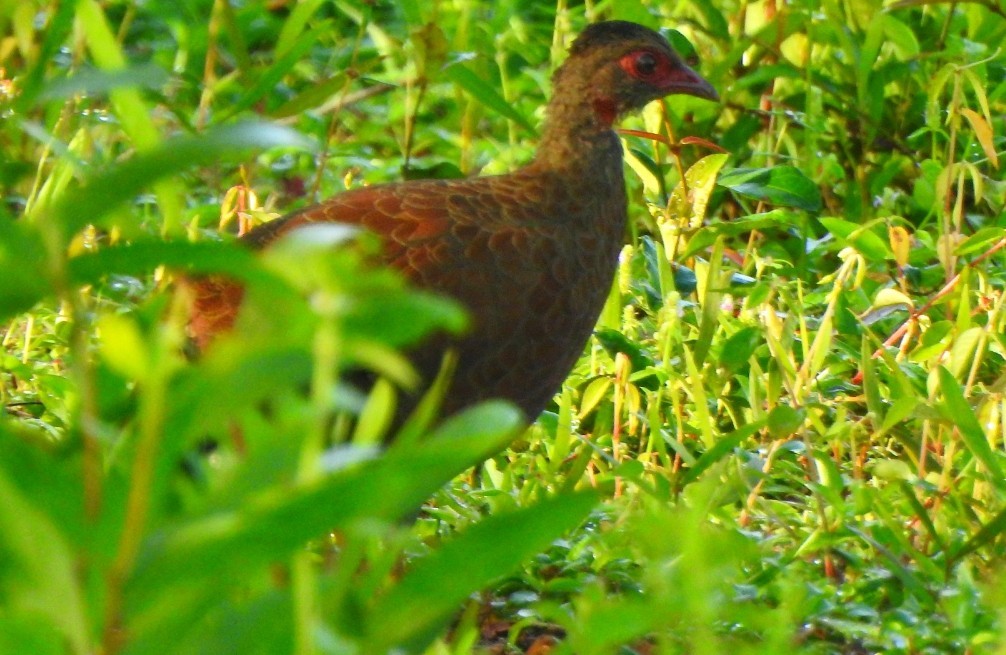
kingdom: Animalia
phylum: Chordata
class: Aves
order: Galliformes
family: Phasianidae
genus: Galloperdix
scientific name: Galloperdix spadicea
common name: Red spurfowl
